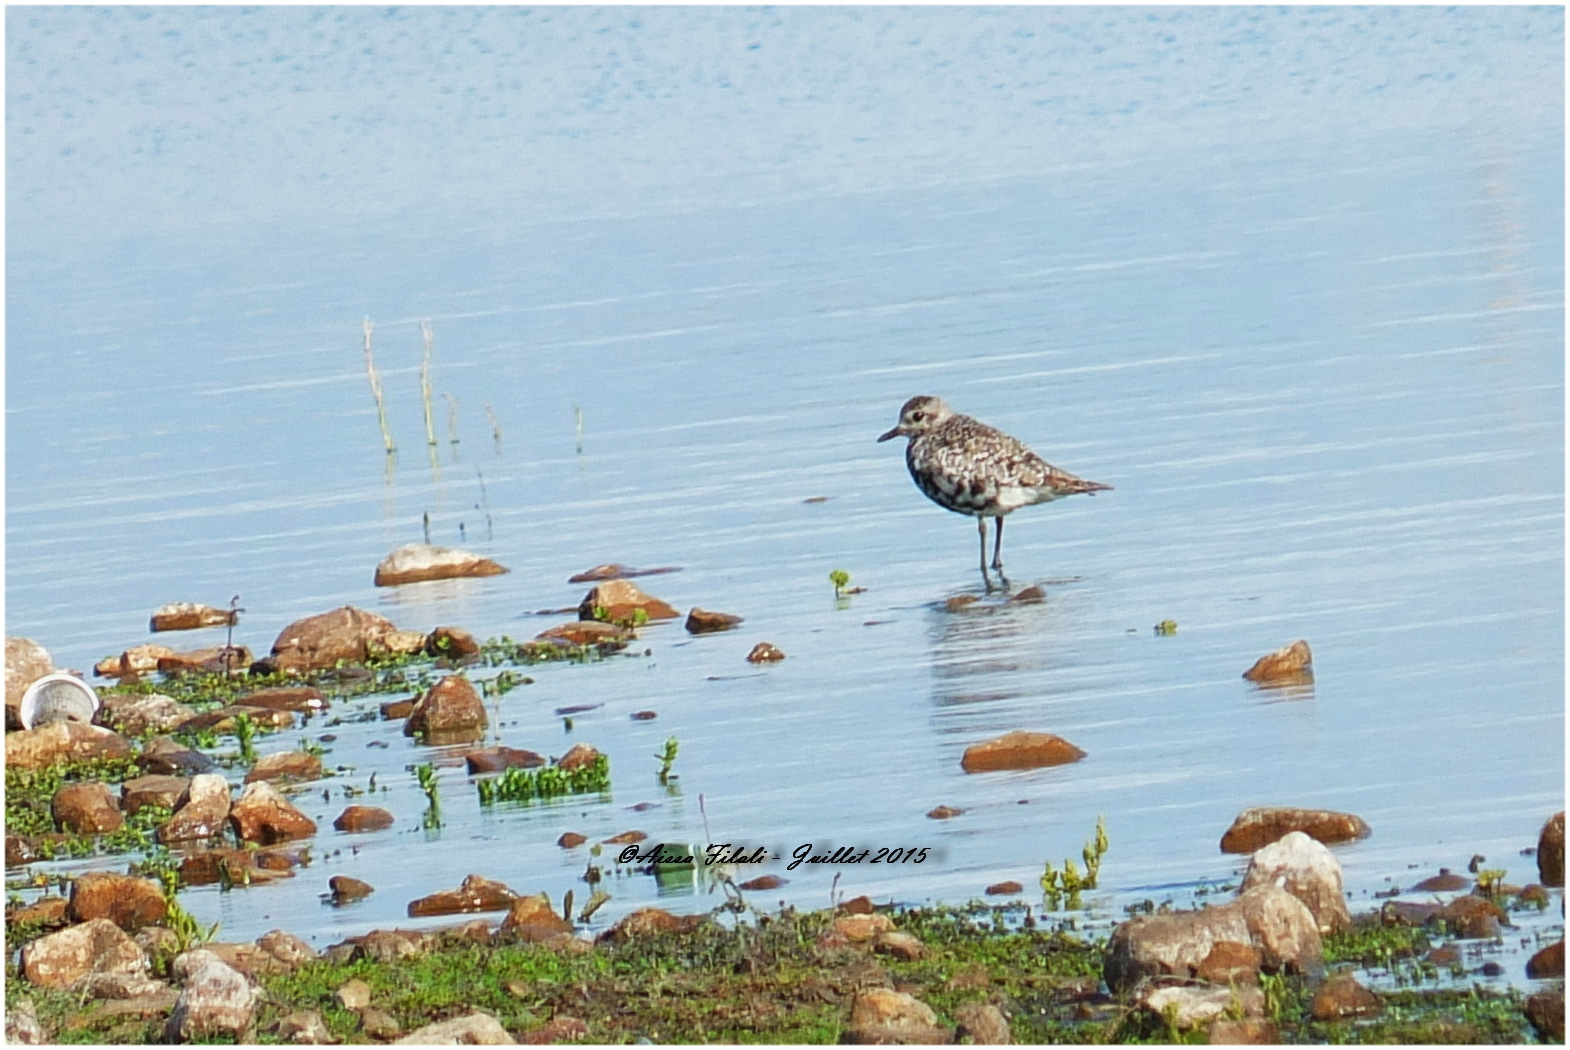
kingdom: Animalia
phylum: Chordata
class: Aves
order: Charadriiformes
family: Charadriidae
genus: Pluvialis
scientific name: Pluvialis squatarola
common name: Grey plover
